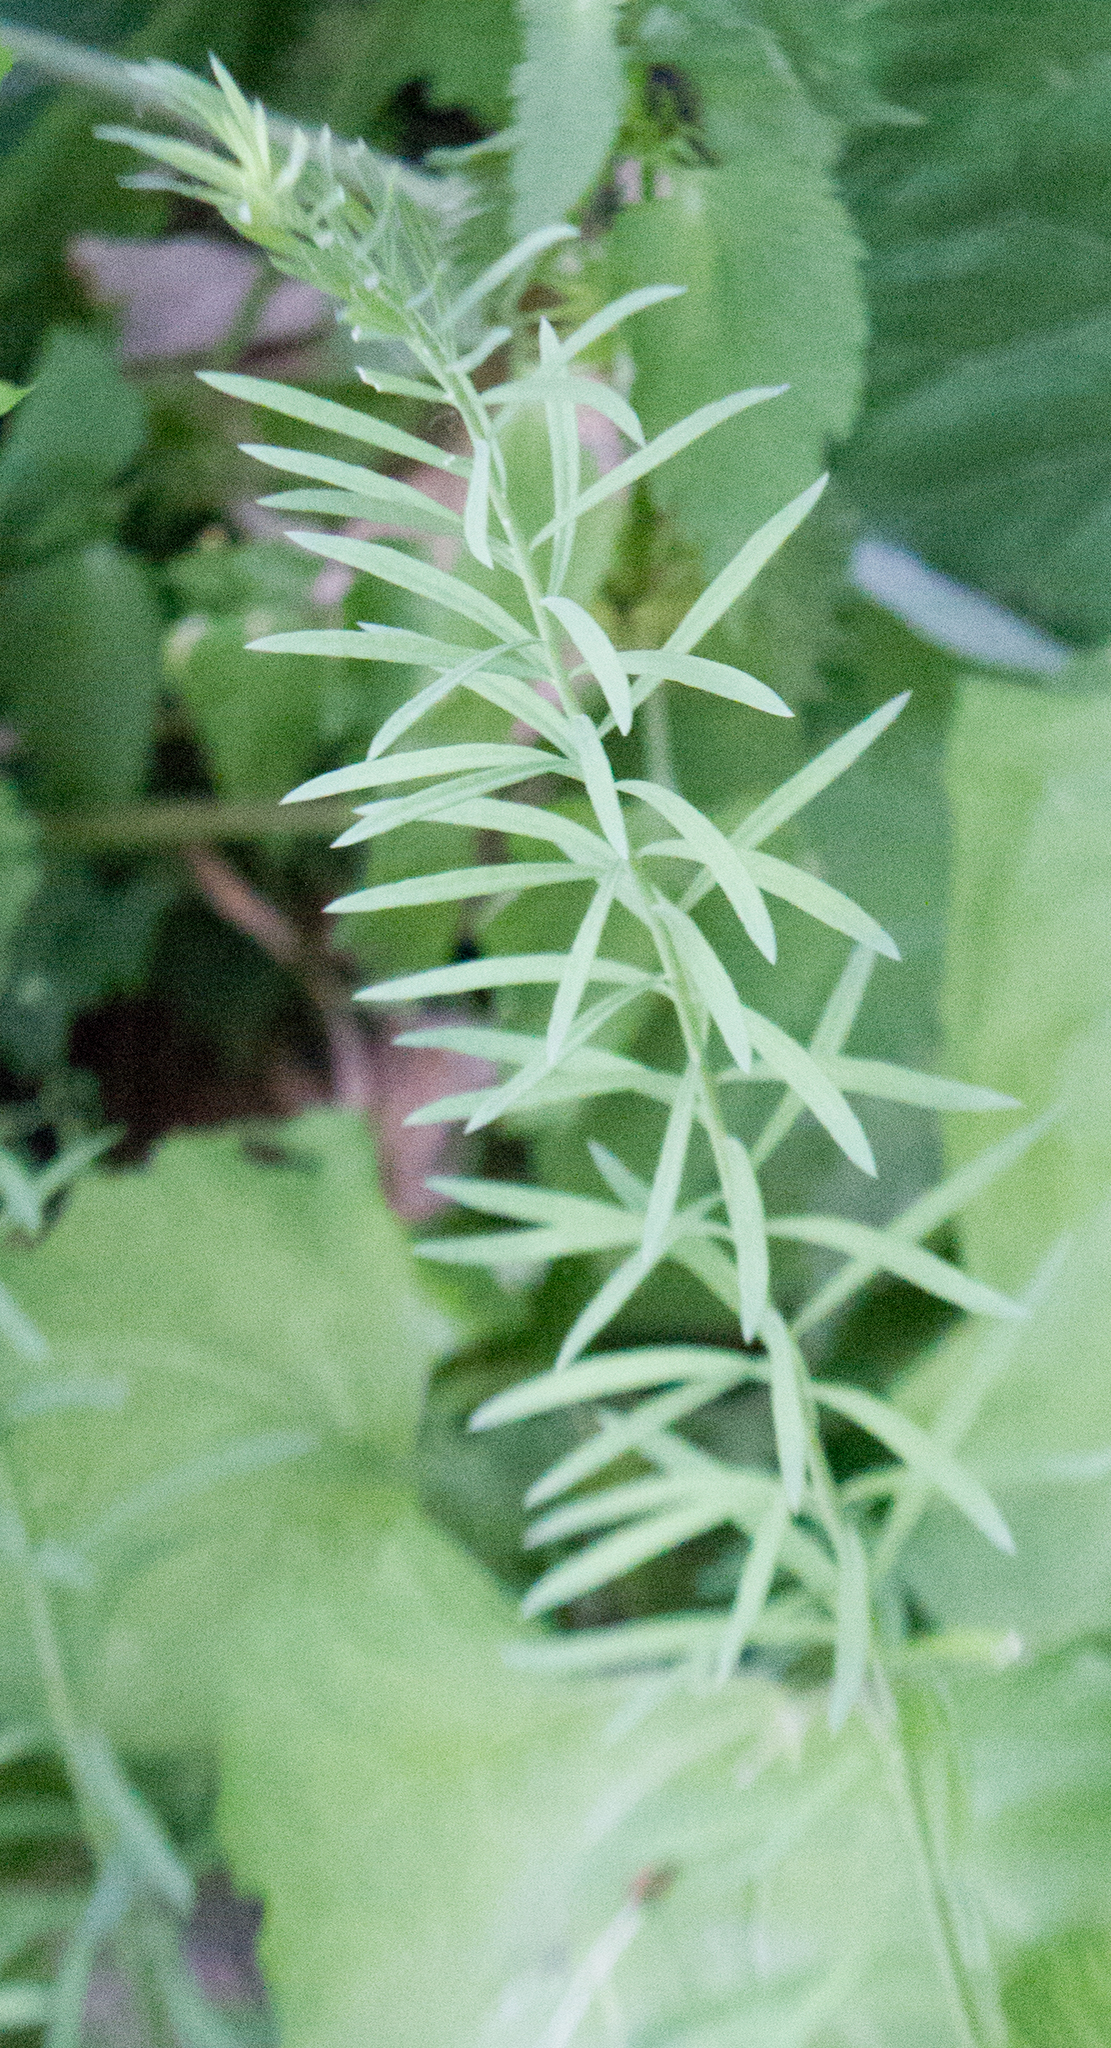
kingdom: Plantae
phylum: Tracheophyta
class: Magnoliopsida
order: Lamiales
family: Plantaginaceae
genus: Linaria
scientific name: Linaria vulgaris
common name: Butter and eggs
